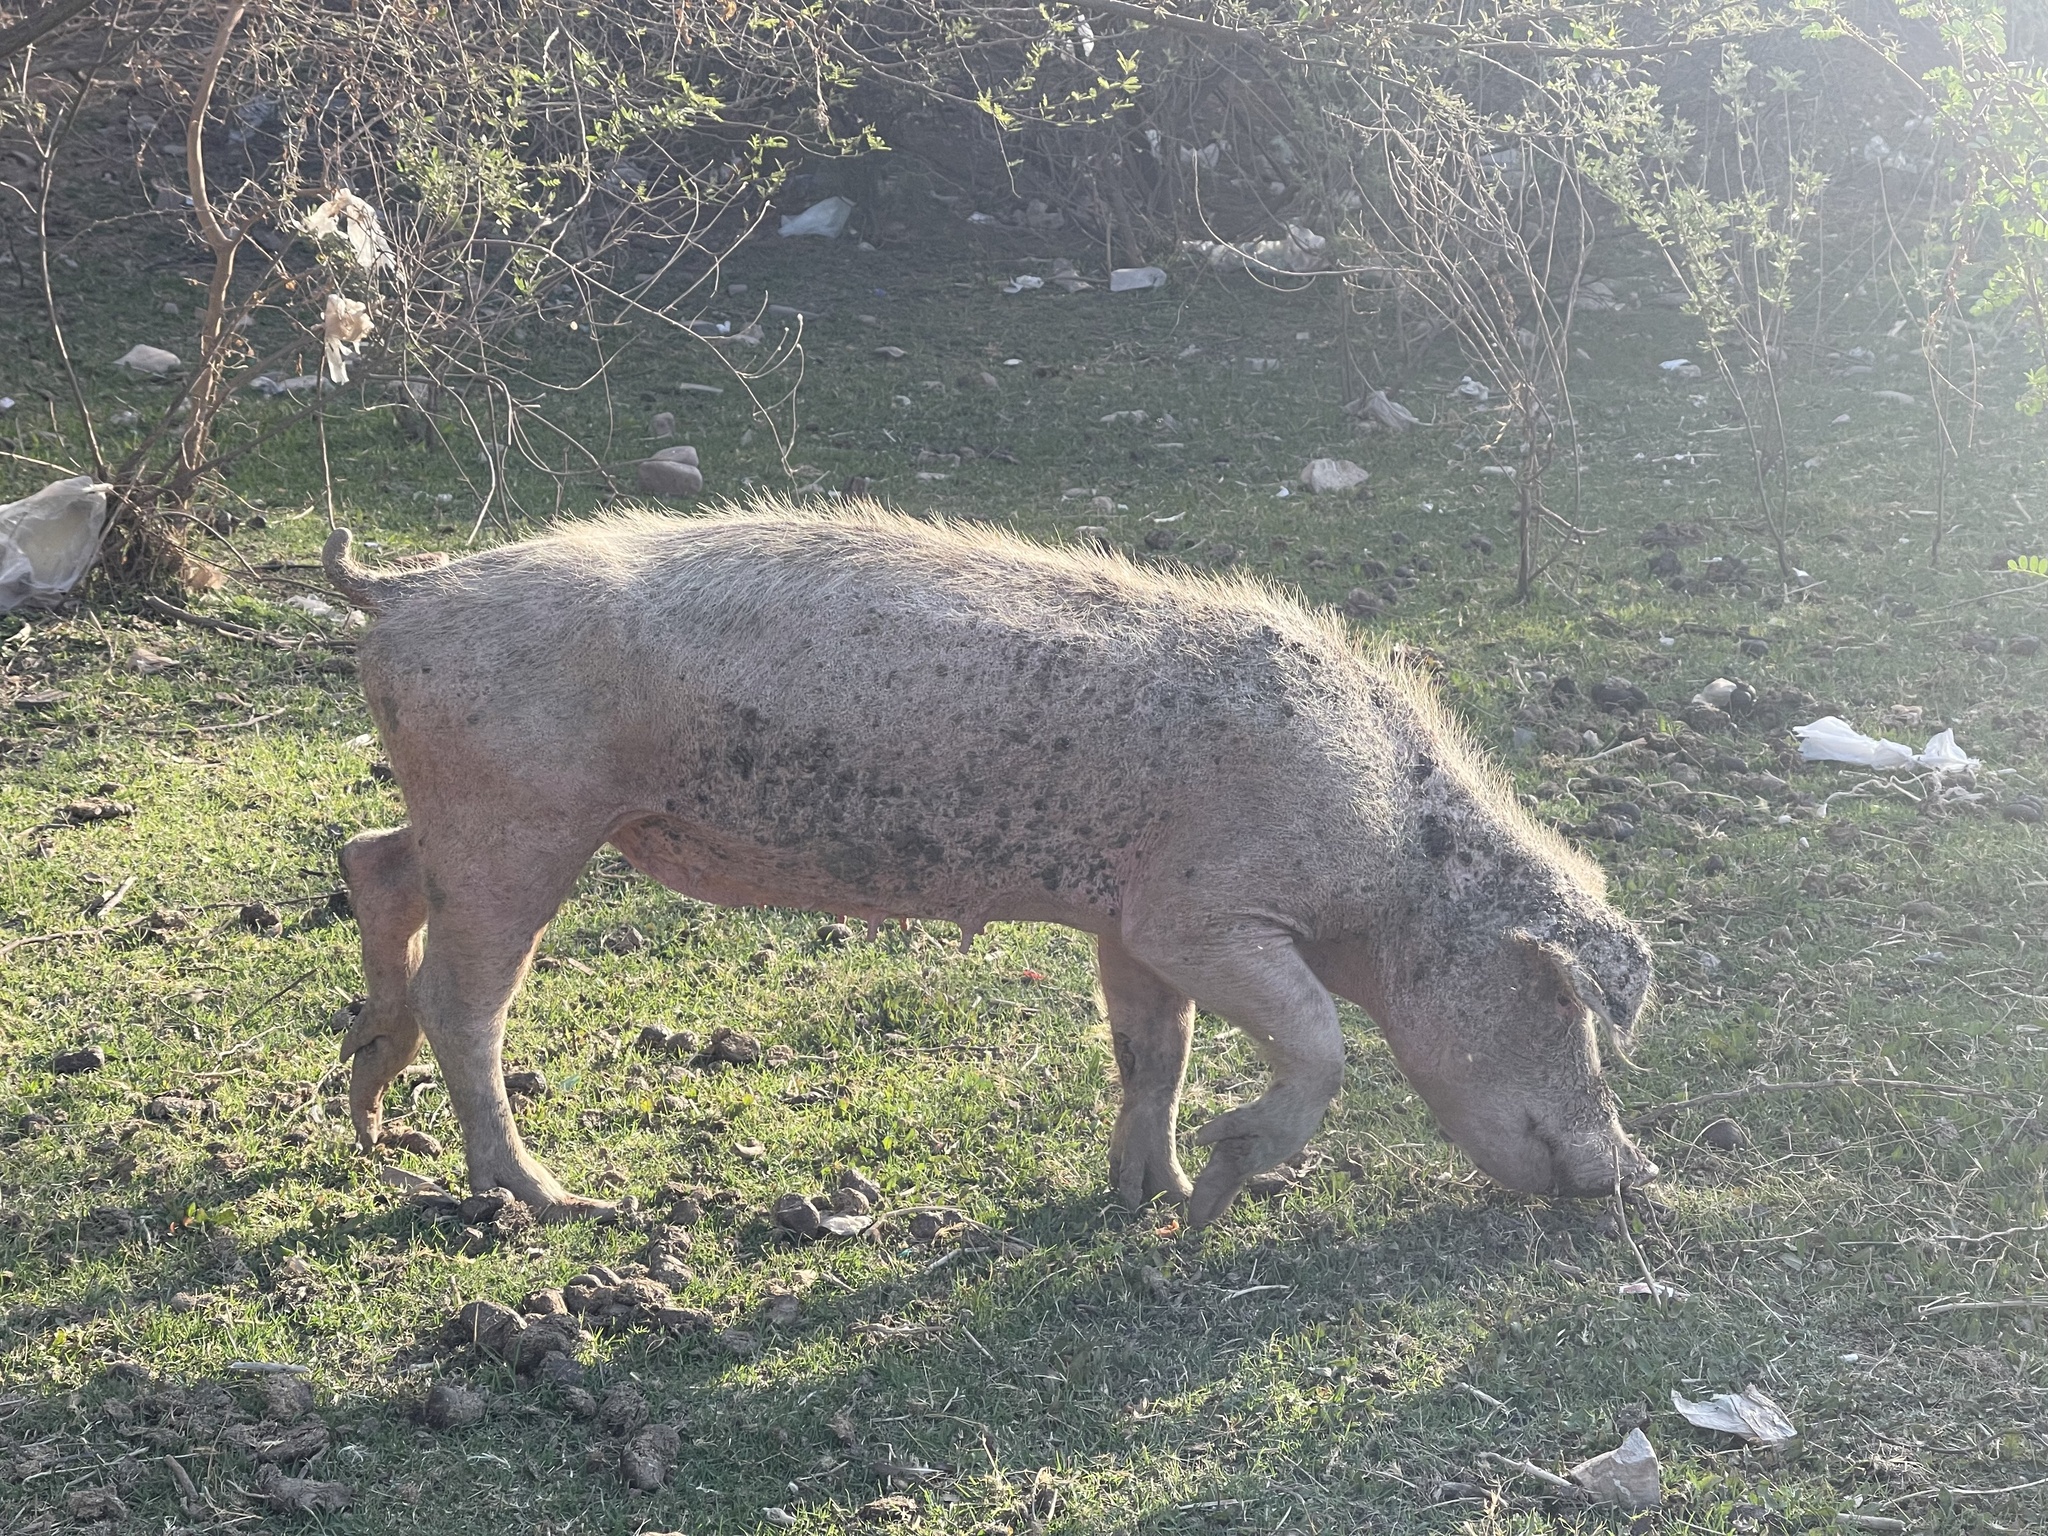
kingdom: Animalia
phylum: Chordata
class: Mammalia
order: Artiodactyla
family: Suidae
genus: Sus
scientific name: Sus scrofa
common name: Wild boar
